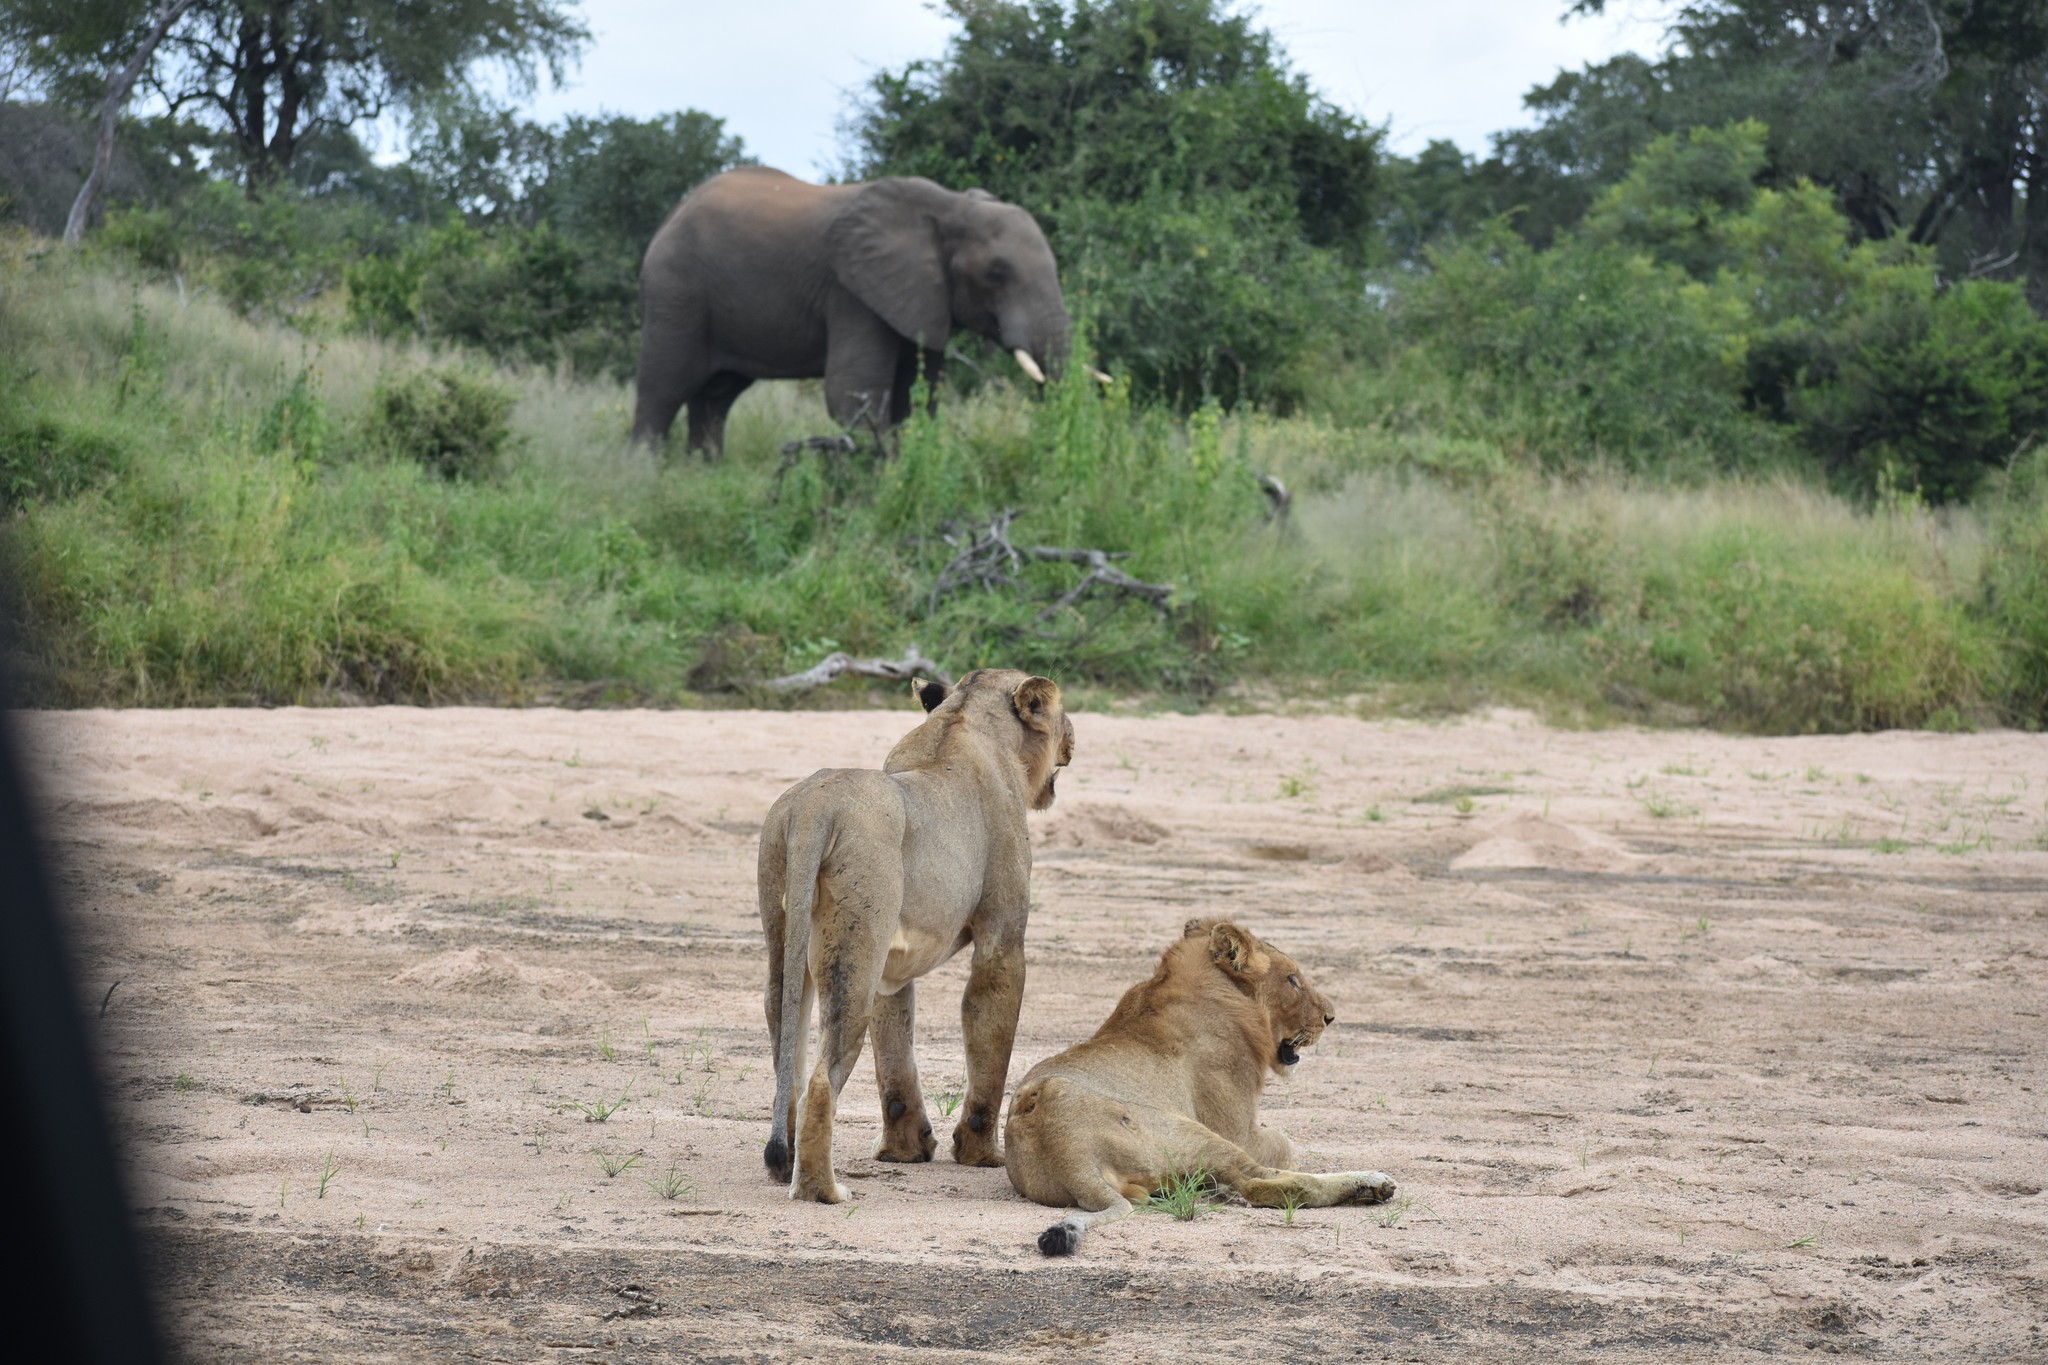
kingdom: Animalia
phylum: Chordata
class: Mammalia
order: Carnivora
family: Felidae
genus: Panthera
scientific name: Panthera leo
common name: Lion
